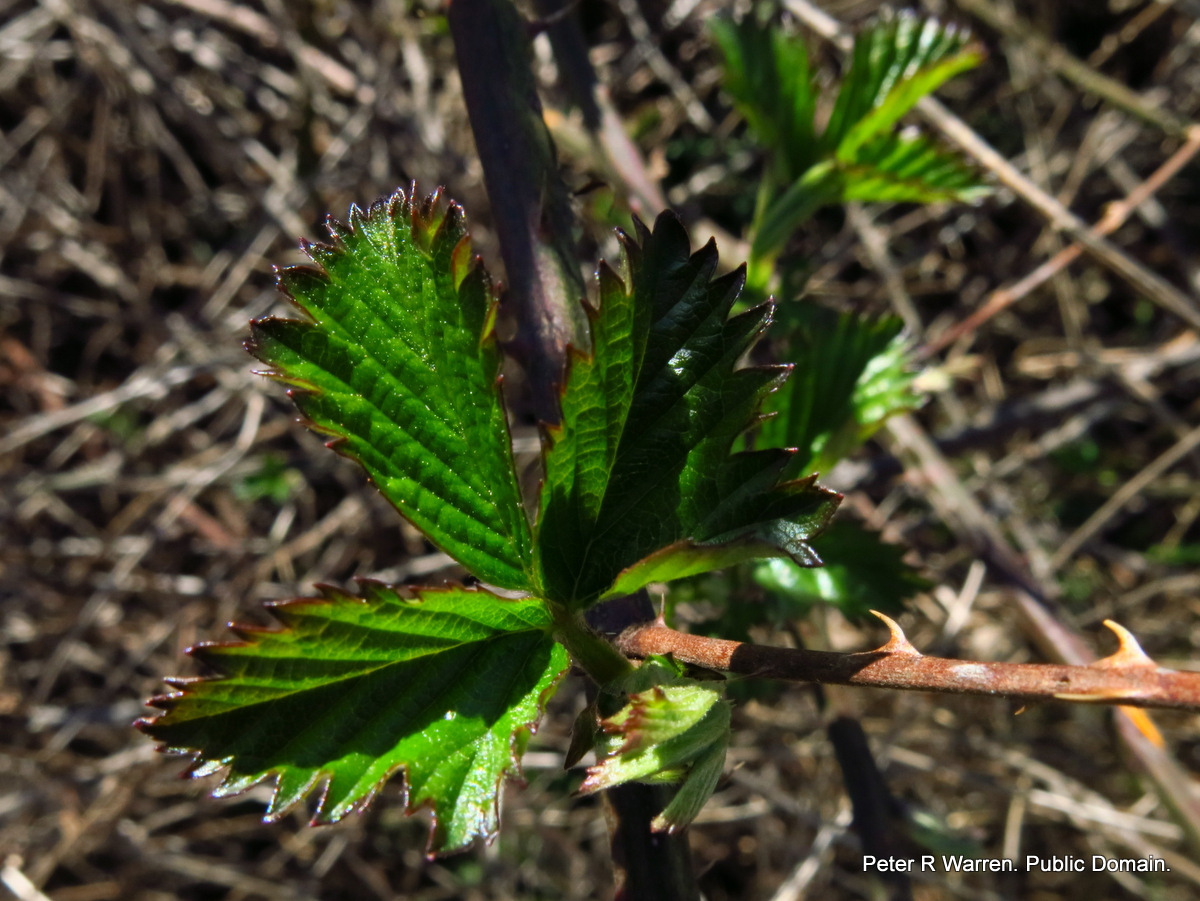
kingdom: Plantae
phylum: Tracheophyta
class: Magnoliopsida
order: Rosales
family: Rosaceae
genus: Rubus
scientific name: Rubus cuneifolius
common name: American bramble
